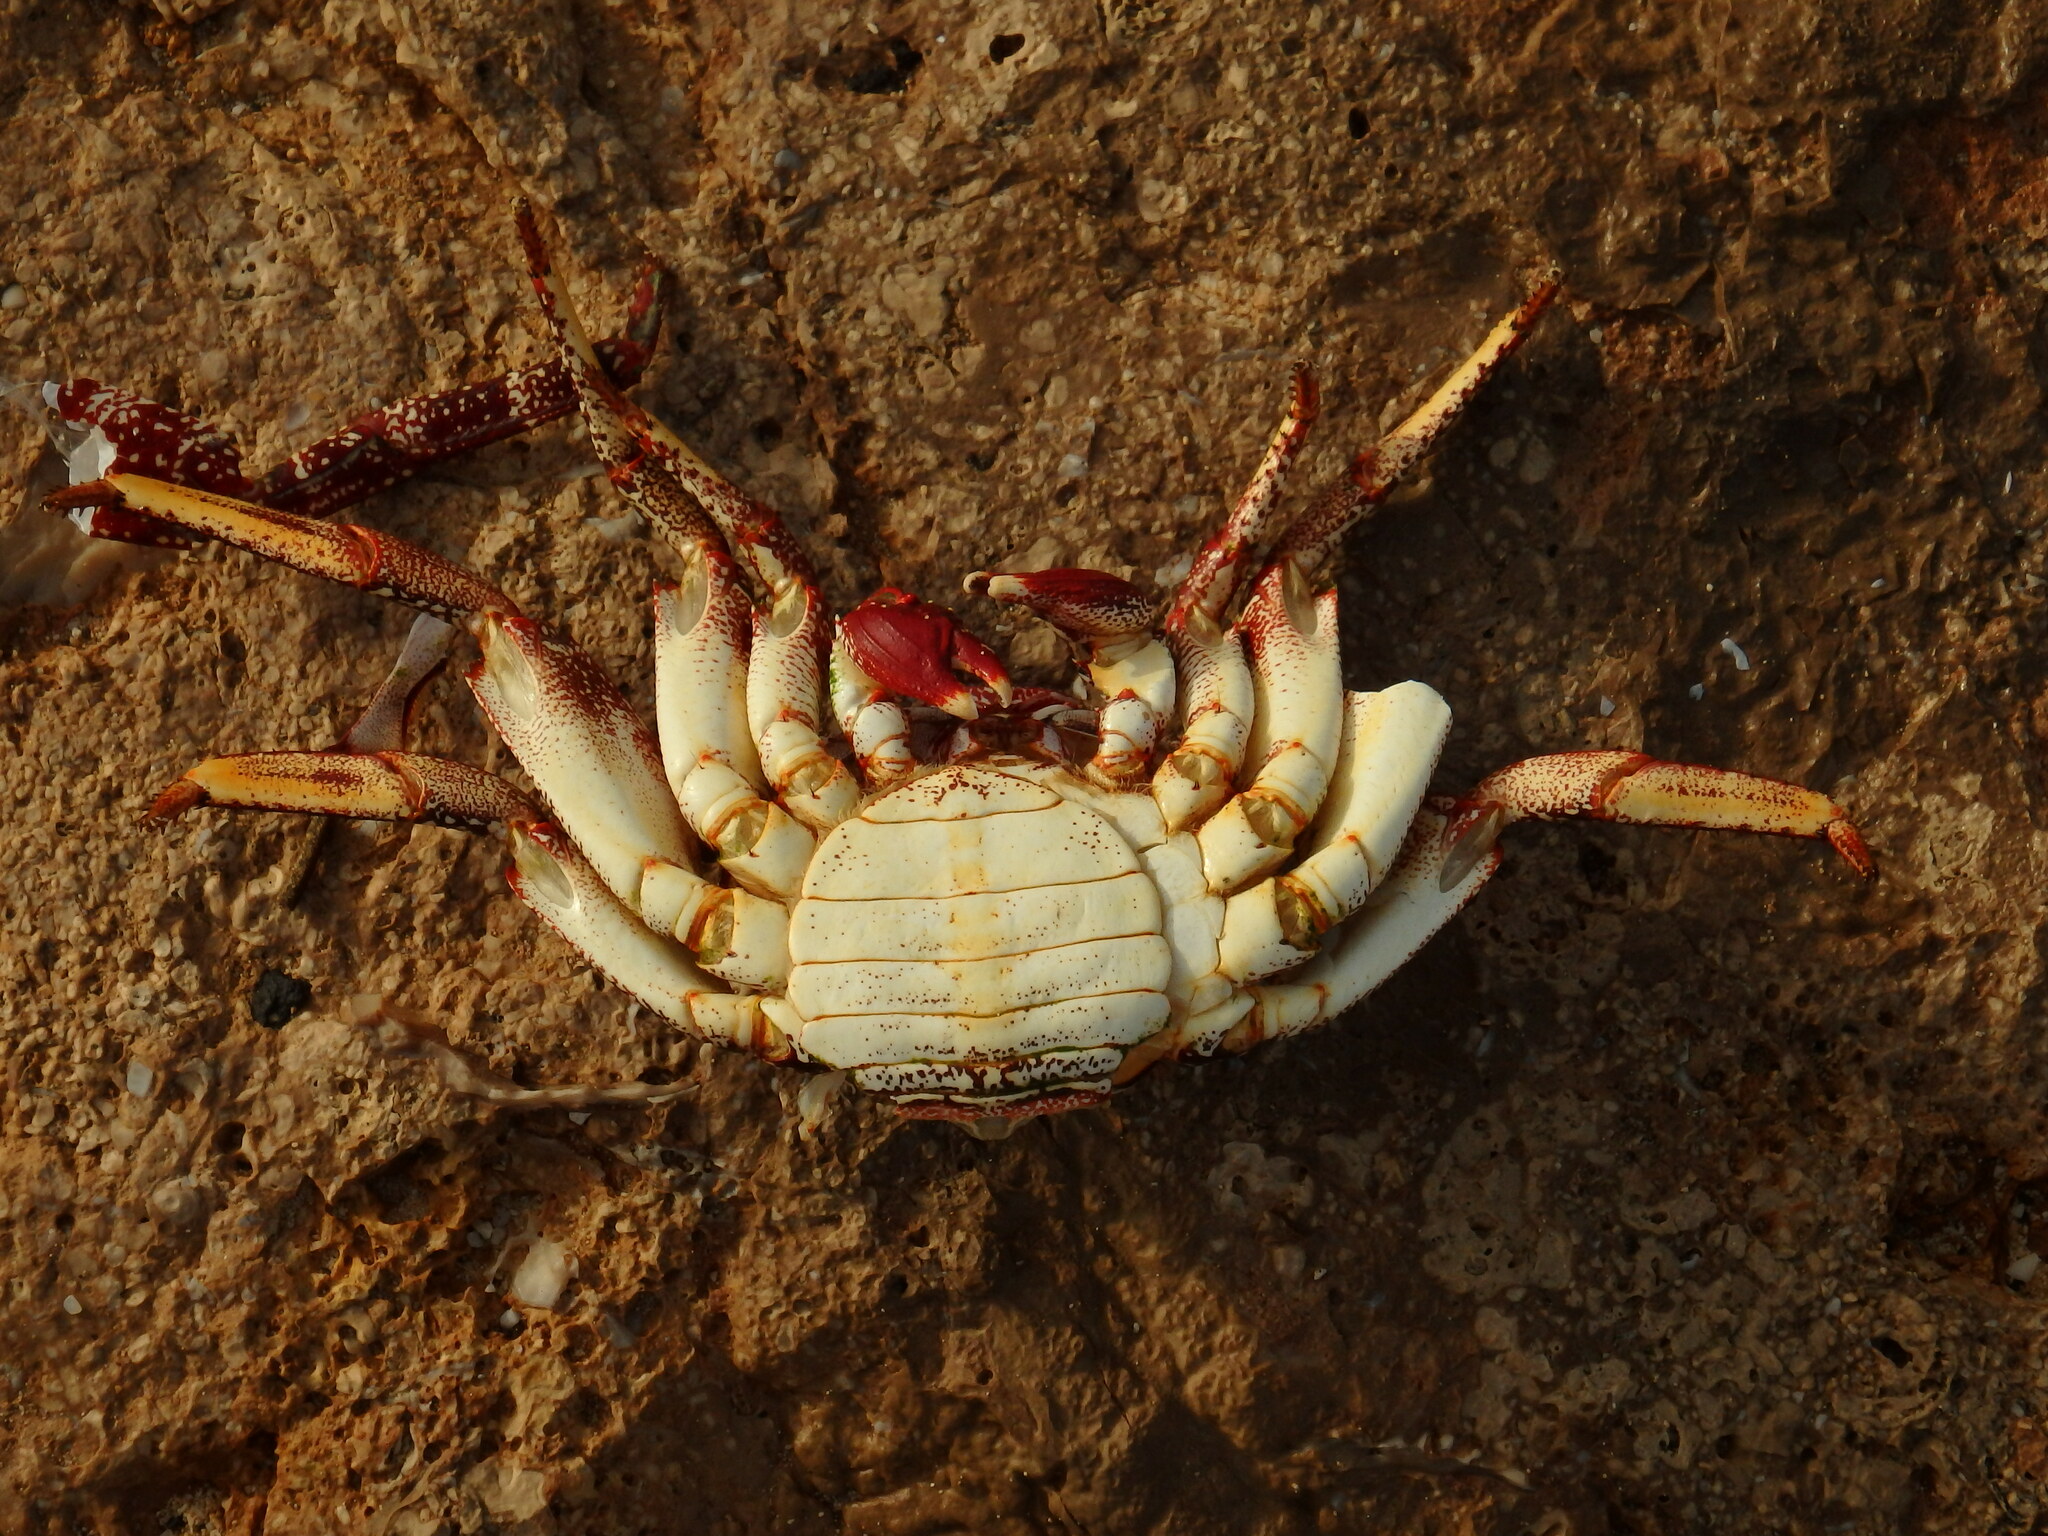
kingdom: Animalia
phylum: Arthropoda
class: Malacostraca
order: Decapoda
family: Grapsidae
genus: Grapsus
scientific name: Grapsus adscensionis
